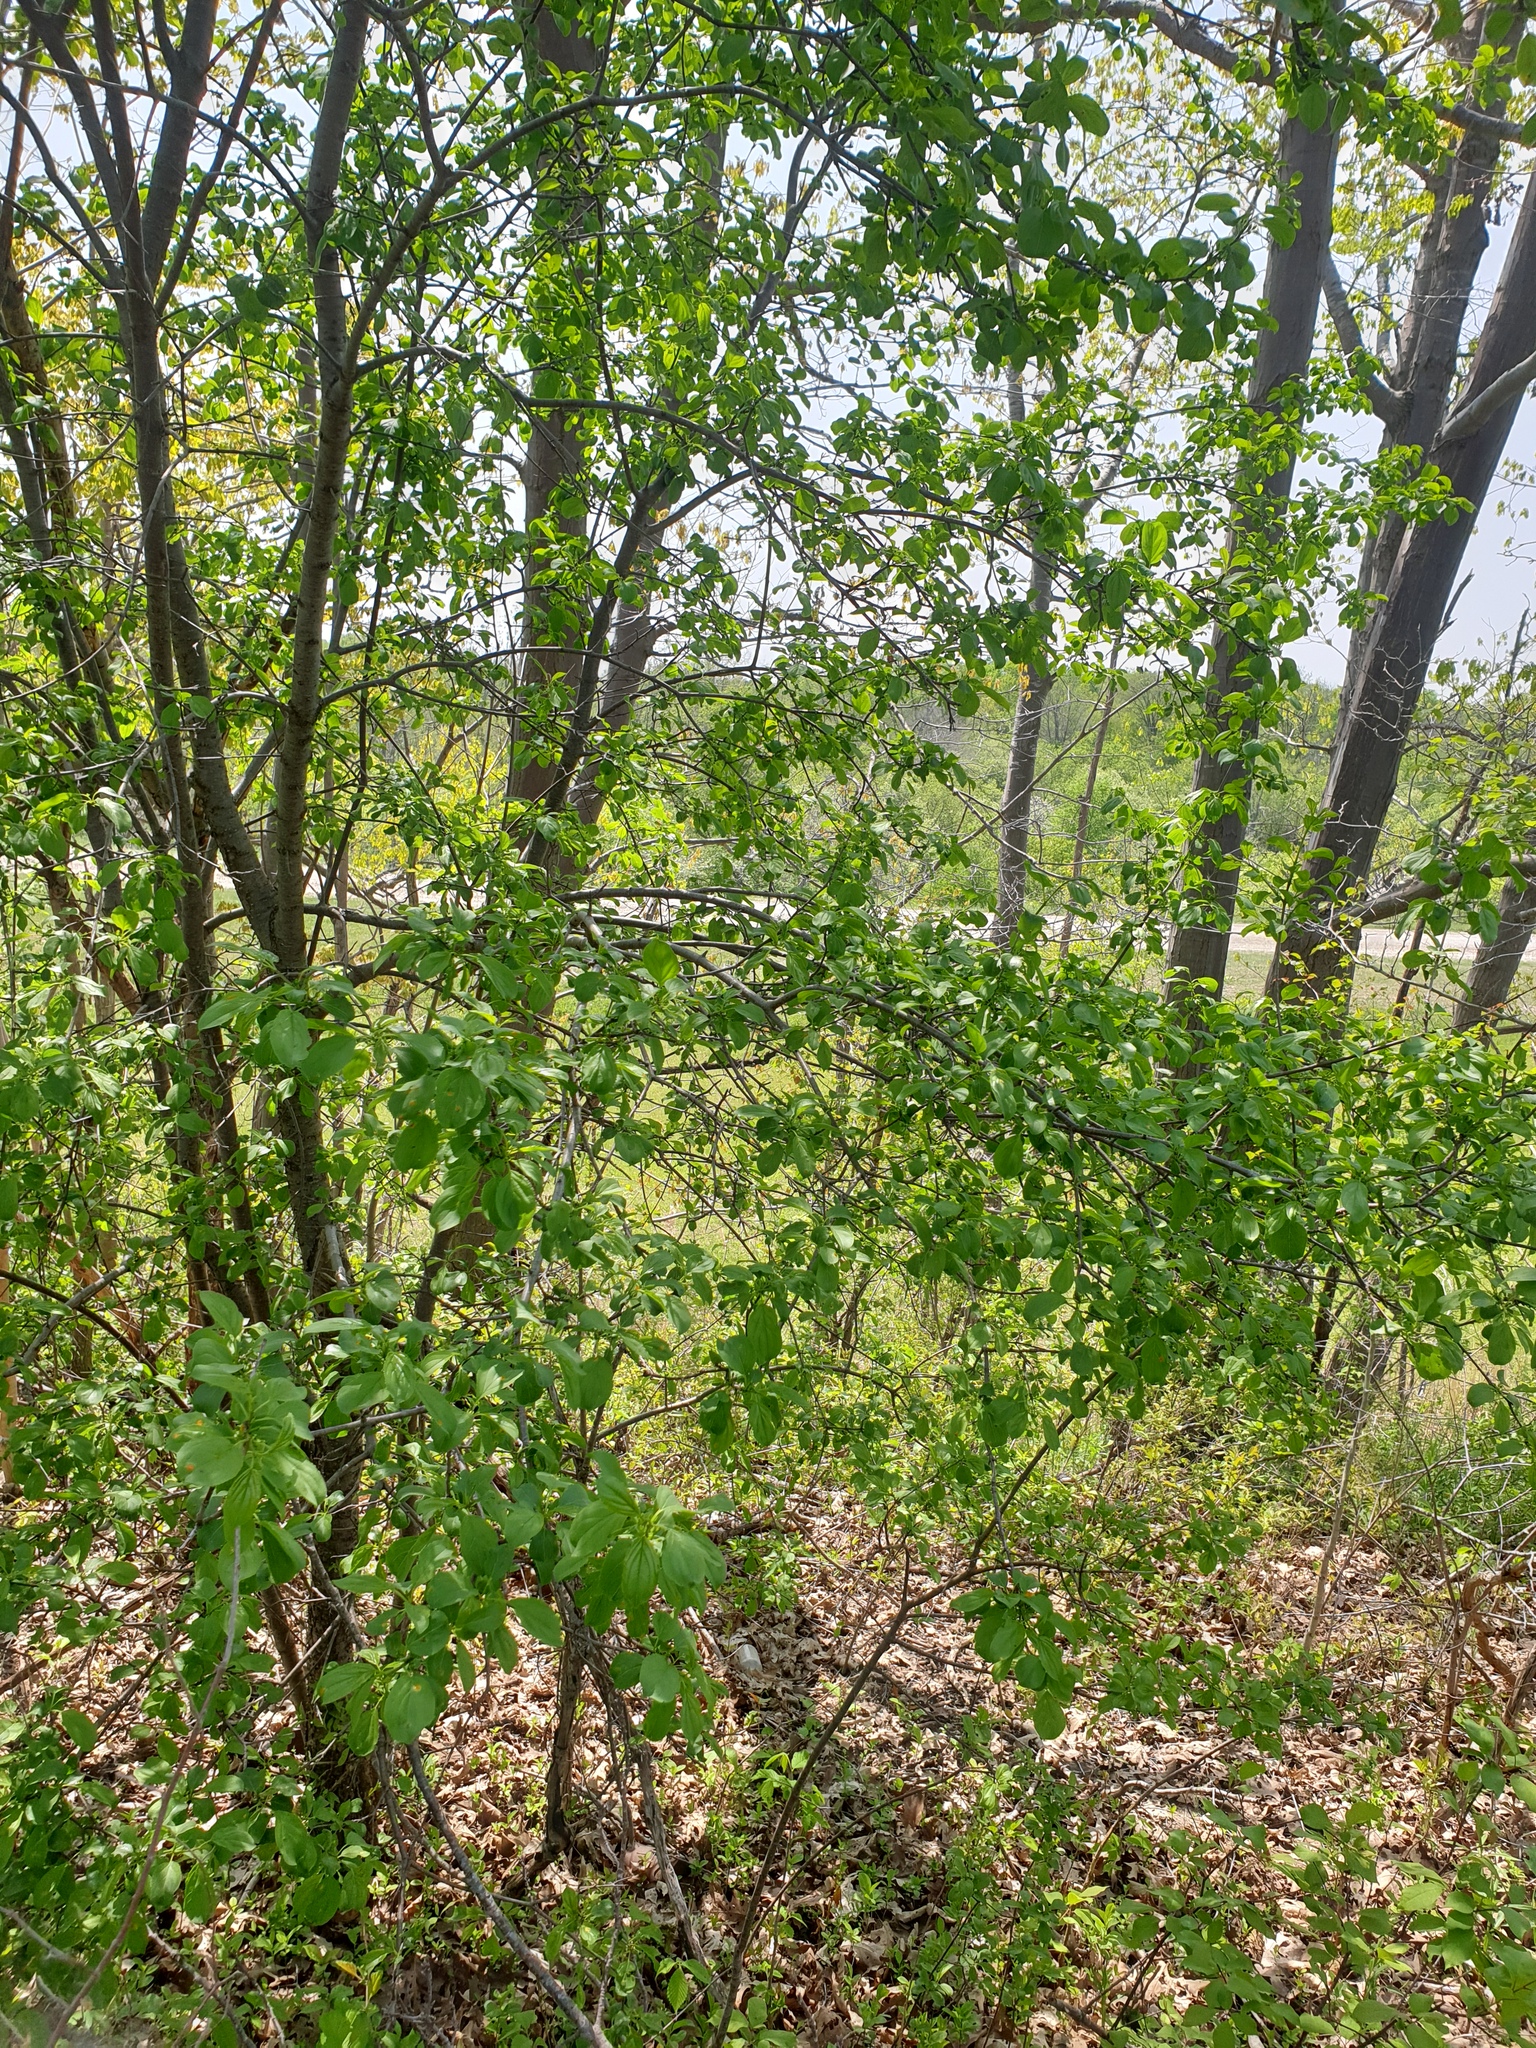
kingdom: Plantae
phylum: Tracheophyta
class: Magnoliopsida
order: Rosales
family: Rhamnaceae
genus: Rhamnus
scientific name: Rhamnus cathartica
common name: Common buckthorn
